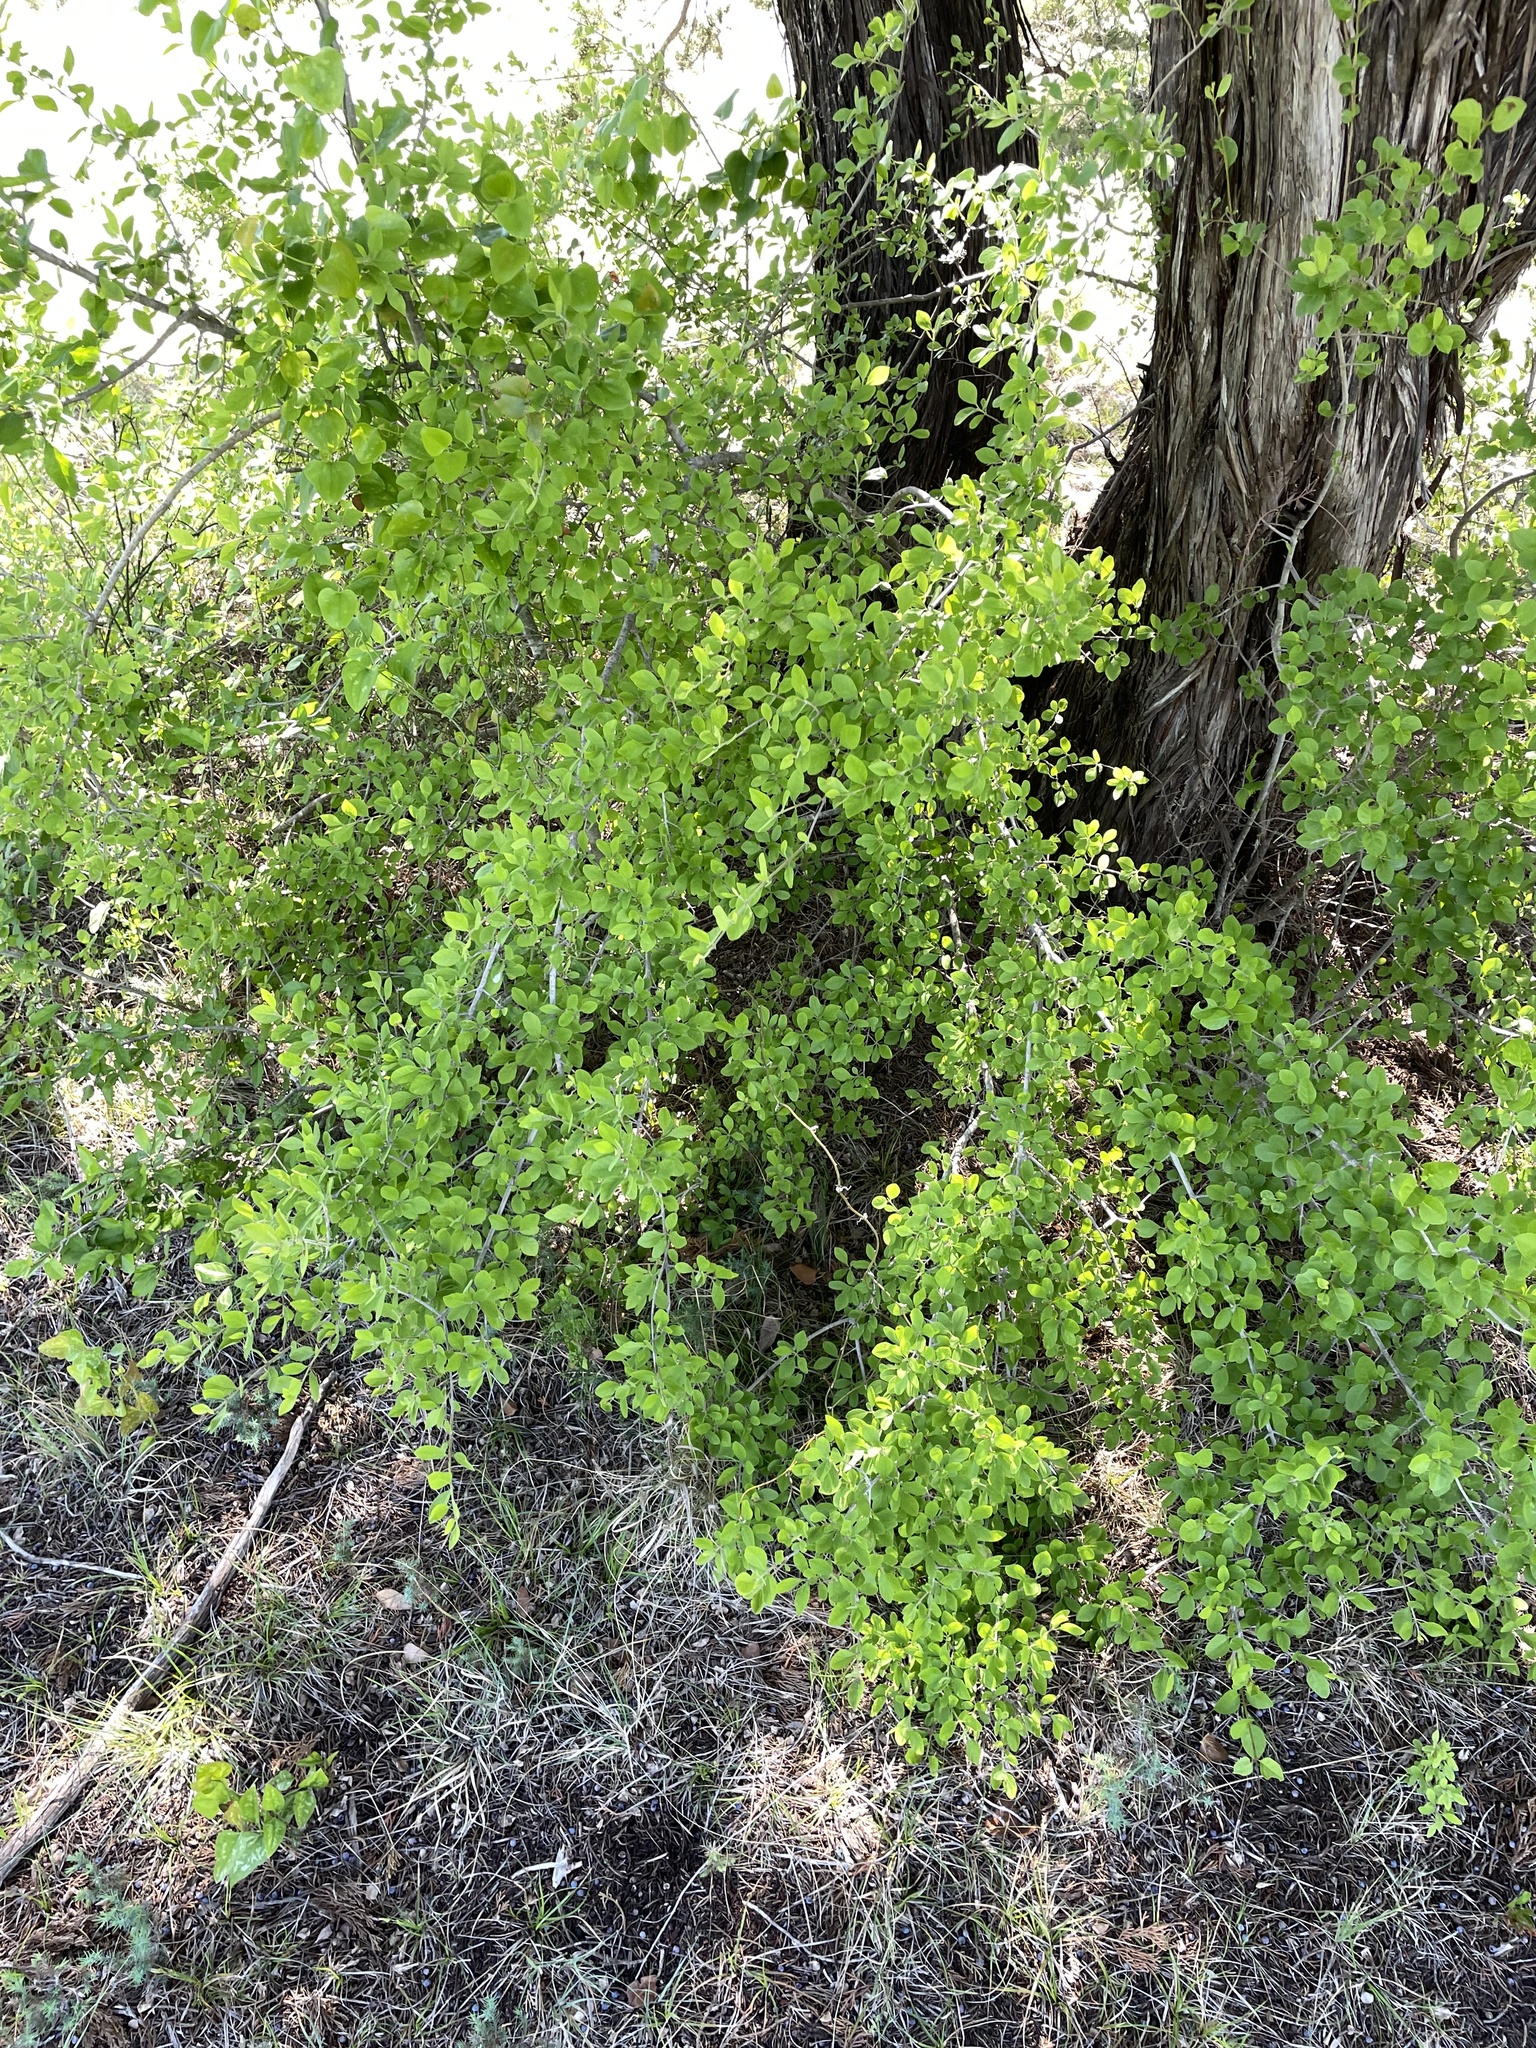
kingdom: Plantae
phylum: Tracheophyta
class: Magnoliopsida
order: Lamiales
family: Oleaceae
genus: Forestiera
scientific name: Forestiera pubescens
